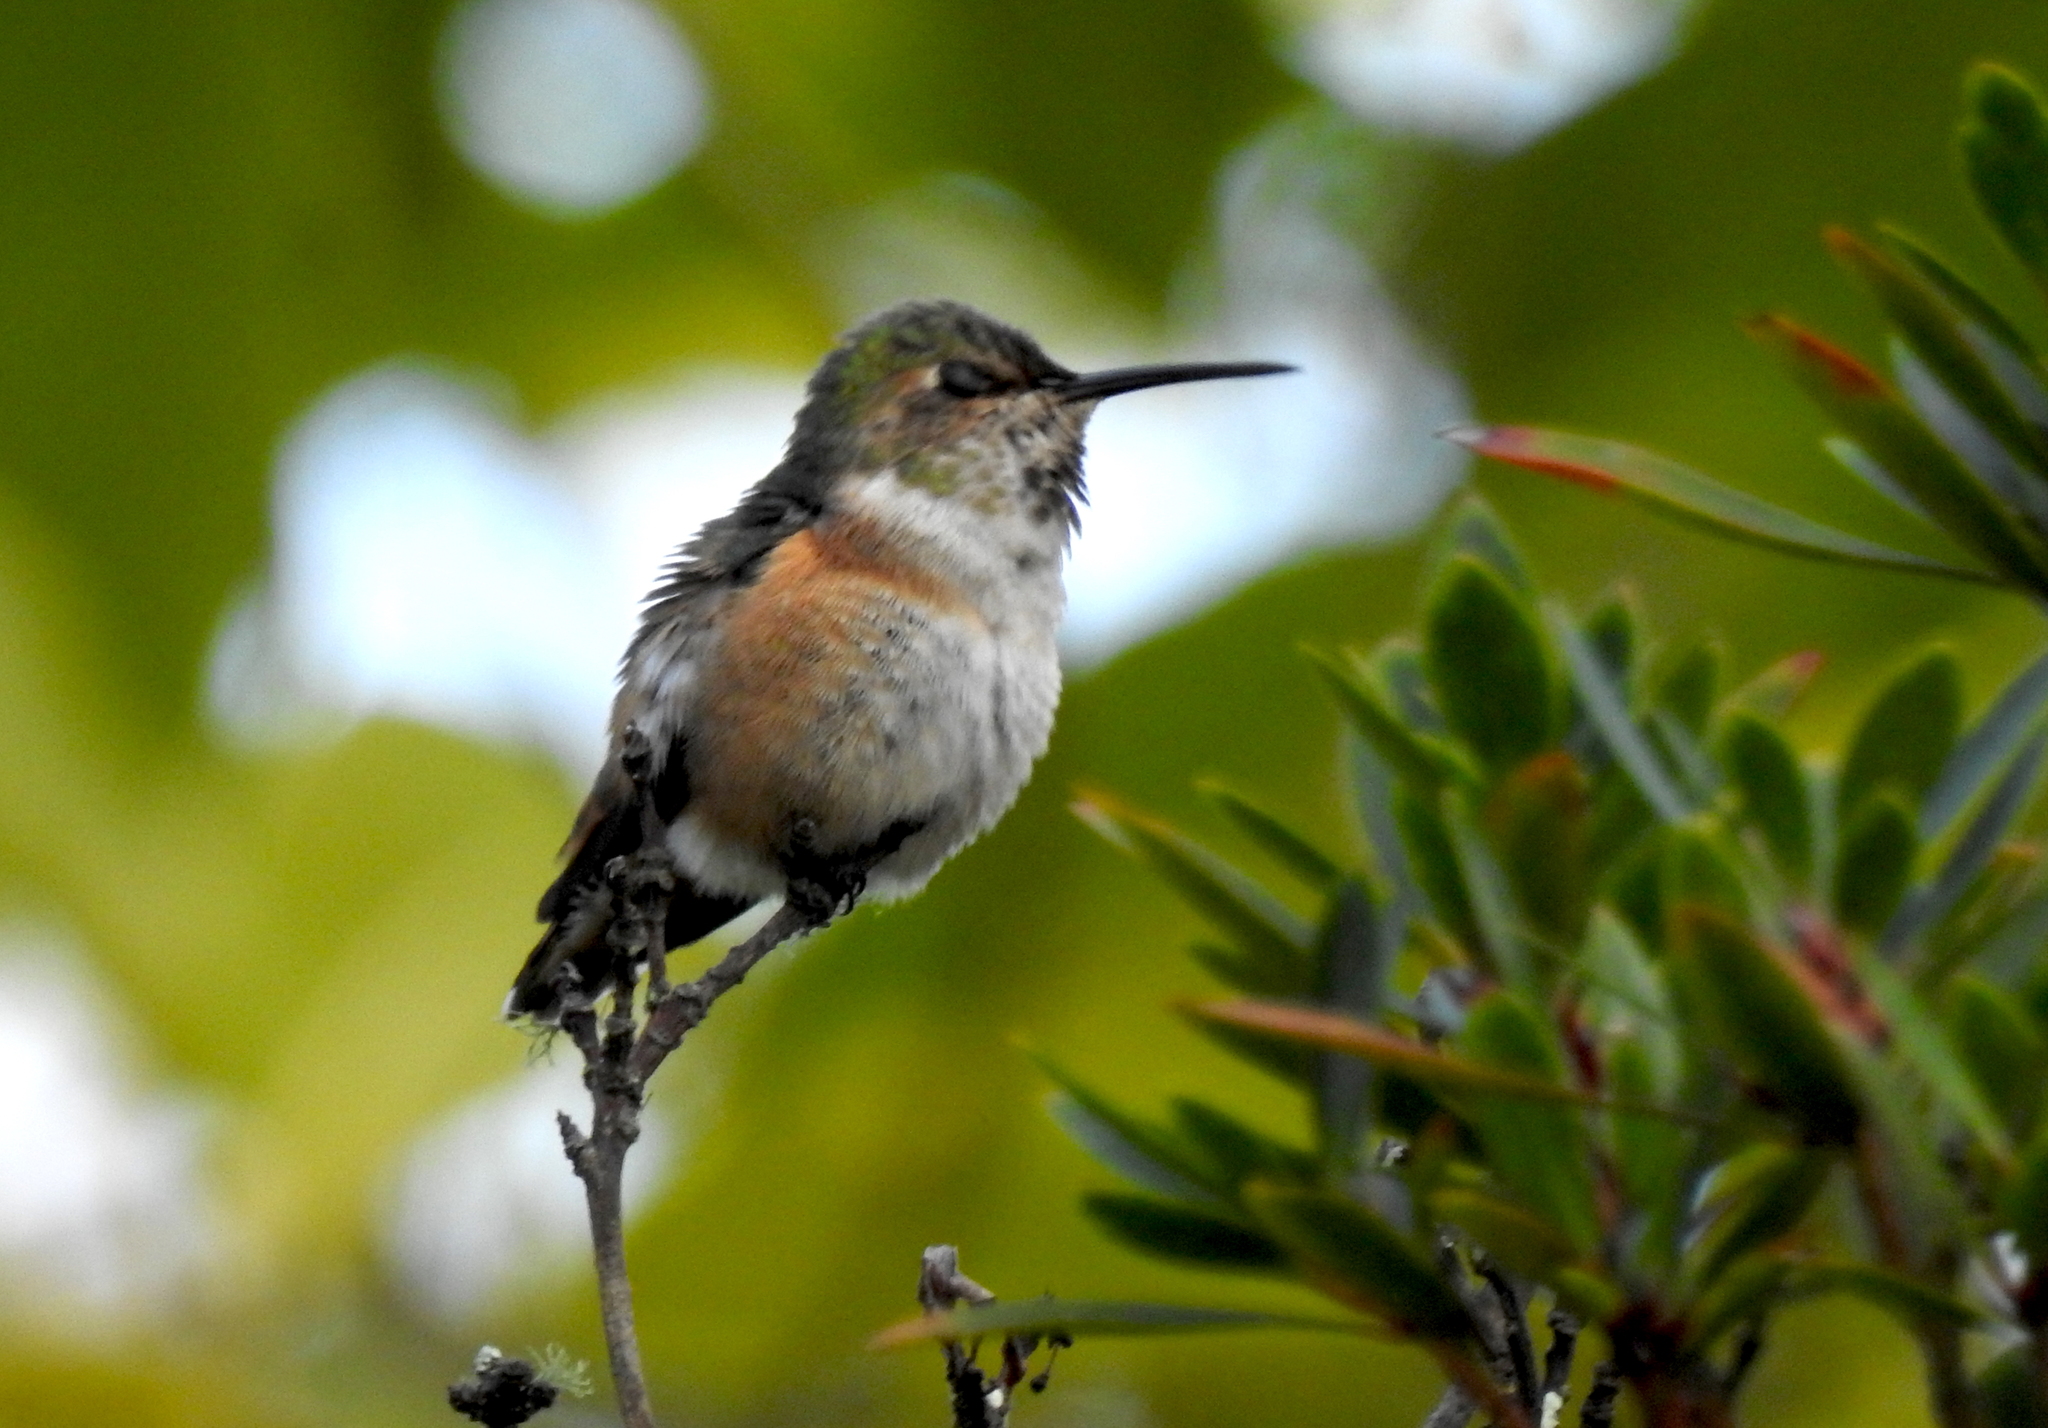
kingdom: Animalia
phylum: Chordata
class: Aves
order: Apodiformes
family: Trochilidae
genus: Selasphorus
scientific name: Selasphorus sasin
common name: Allen's hummingbird
